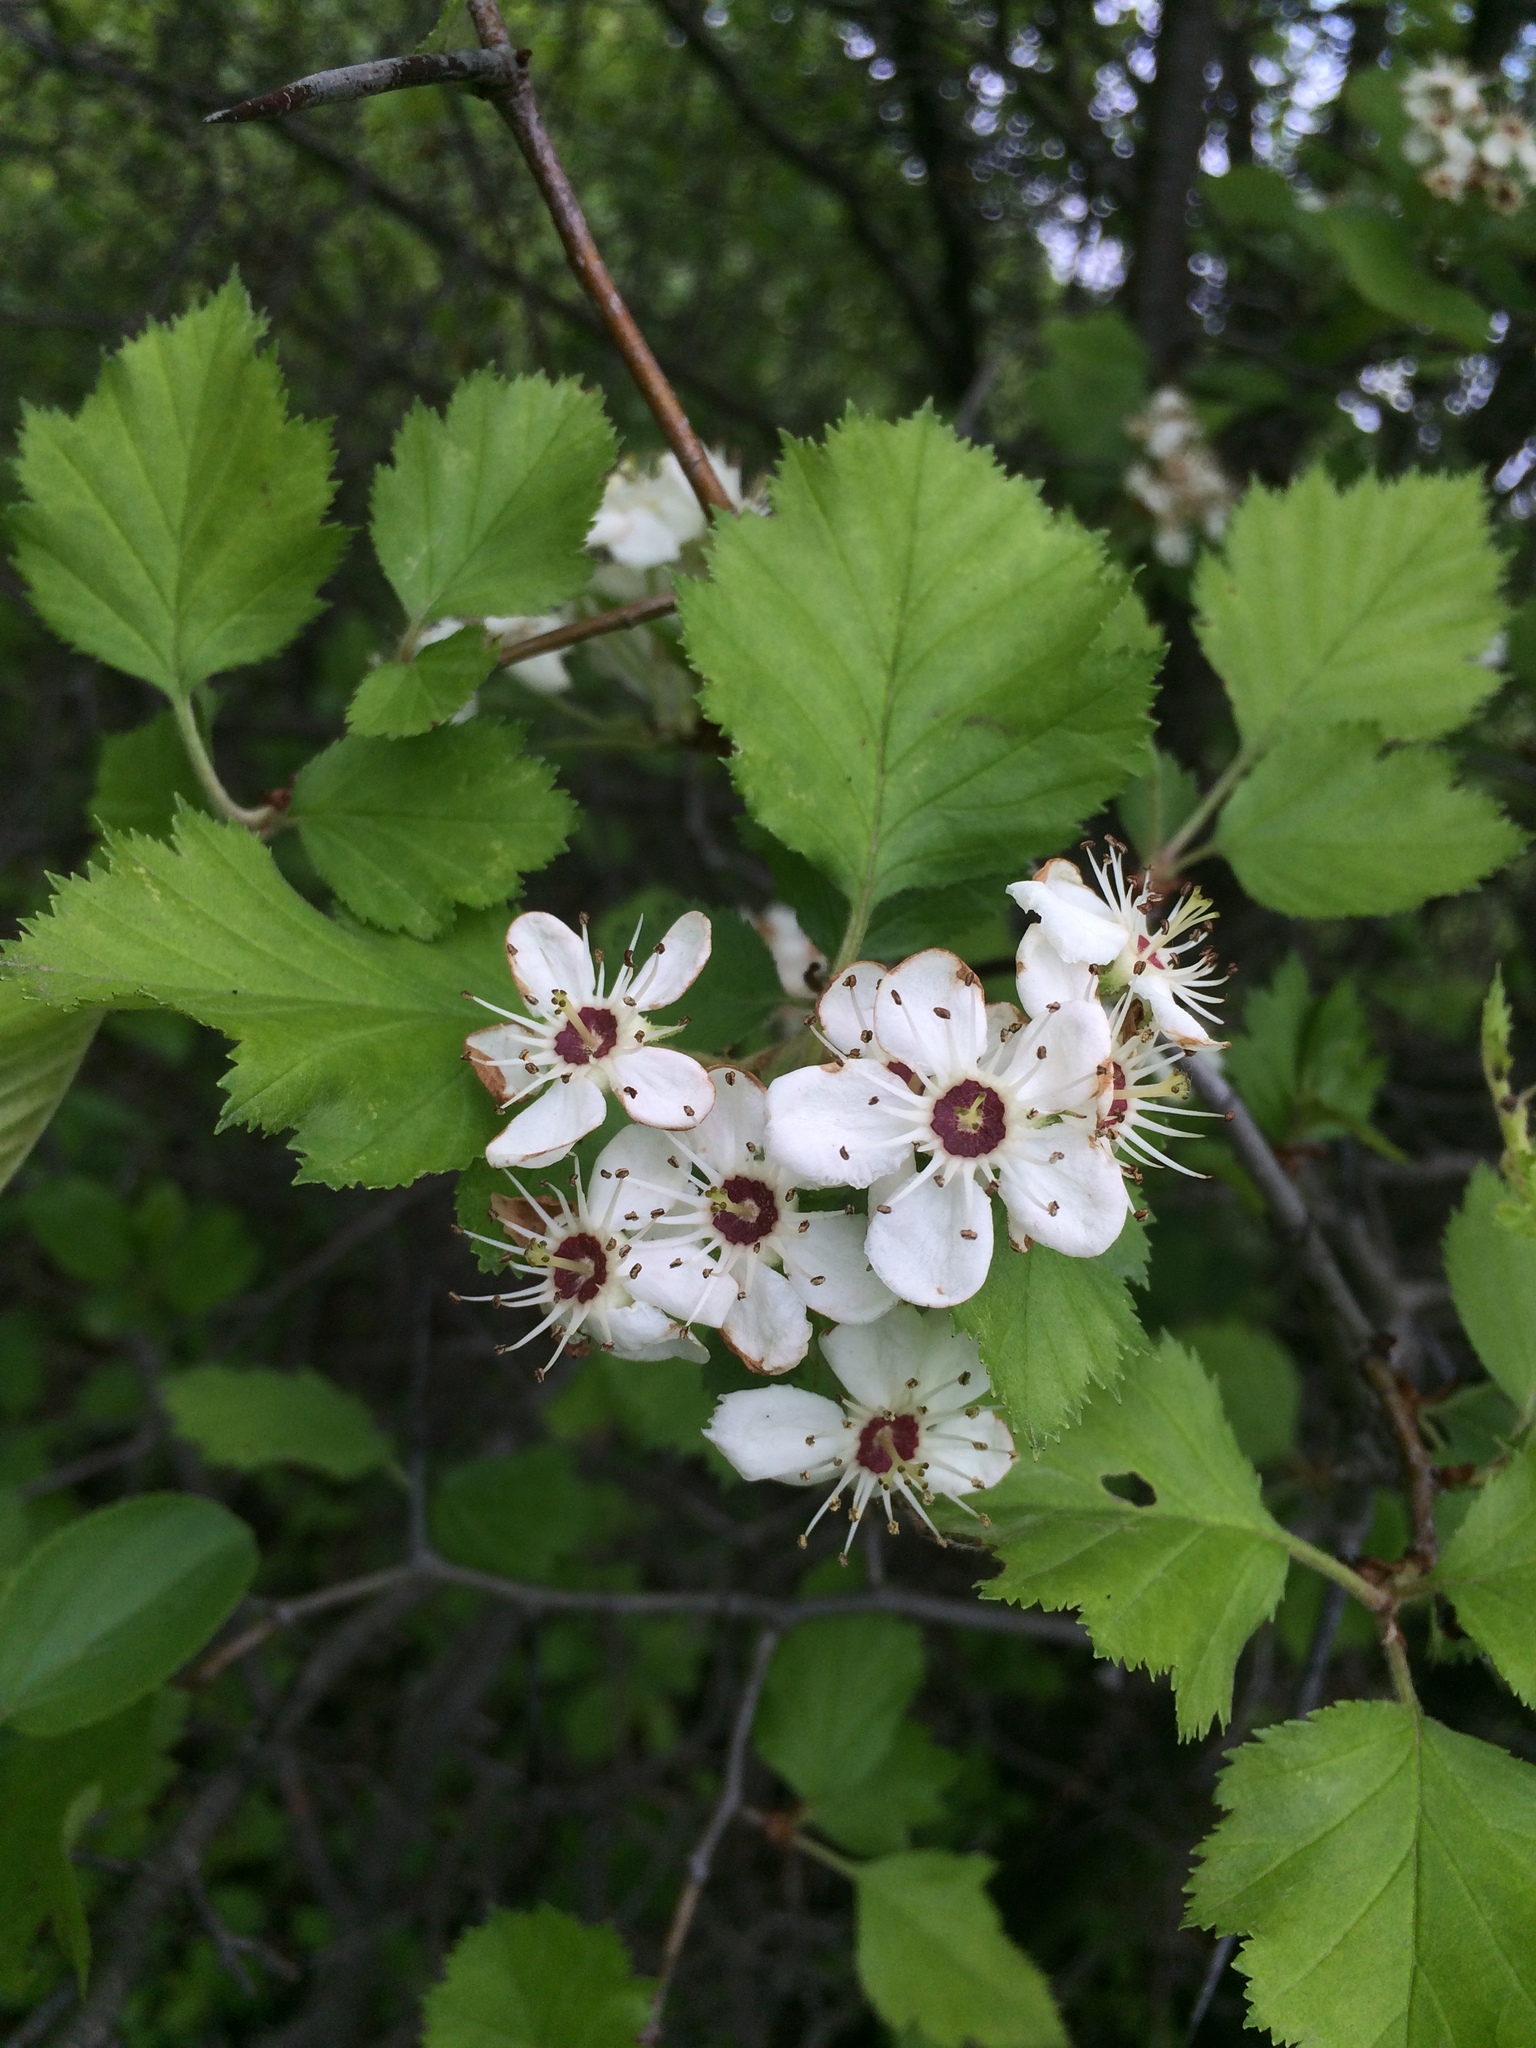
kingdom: Plantae
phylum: Tracheophyta
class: Magnoliopsida
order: Rosales
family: Rosaceae
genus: Crataegus
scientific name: Crataegus submollis
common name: Hairy cockspurthorn
